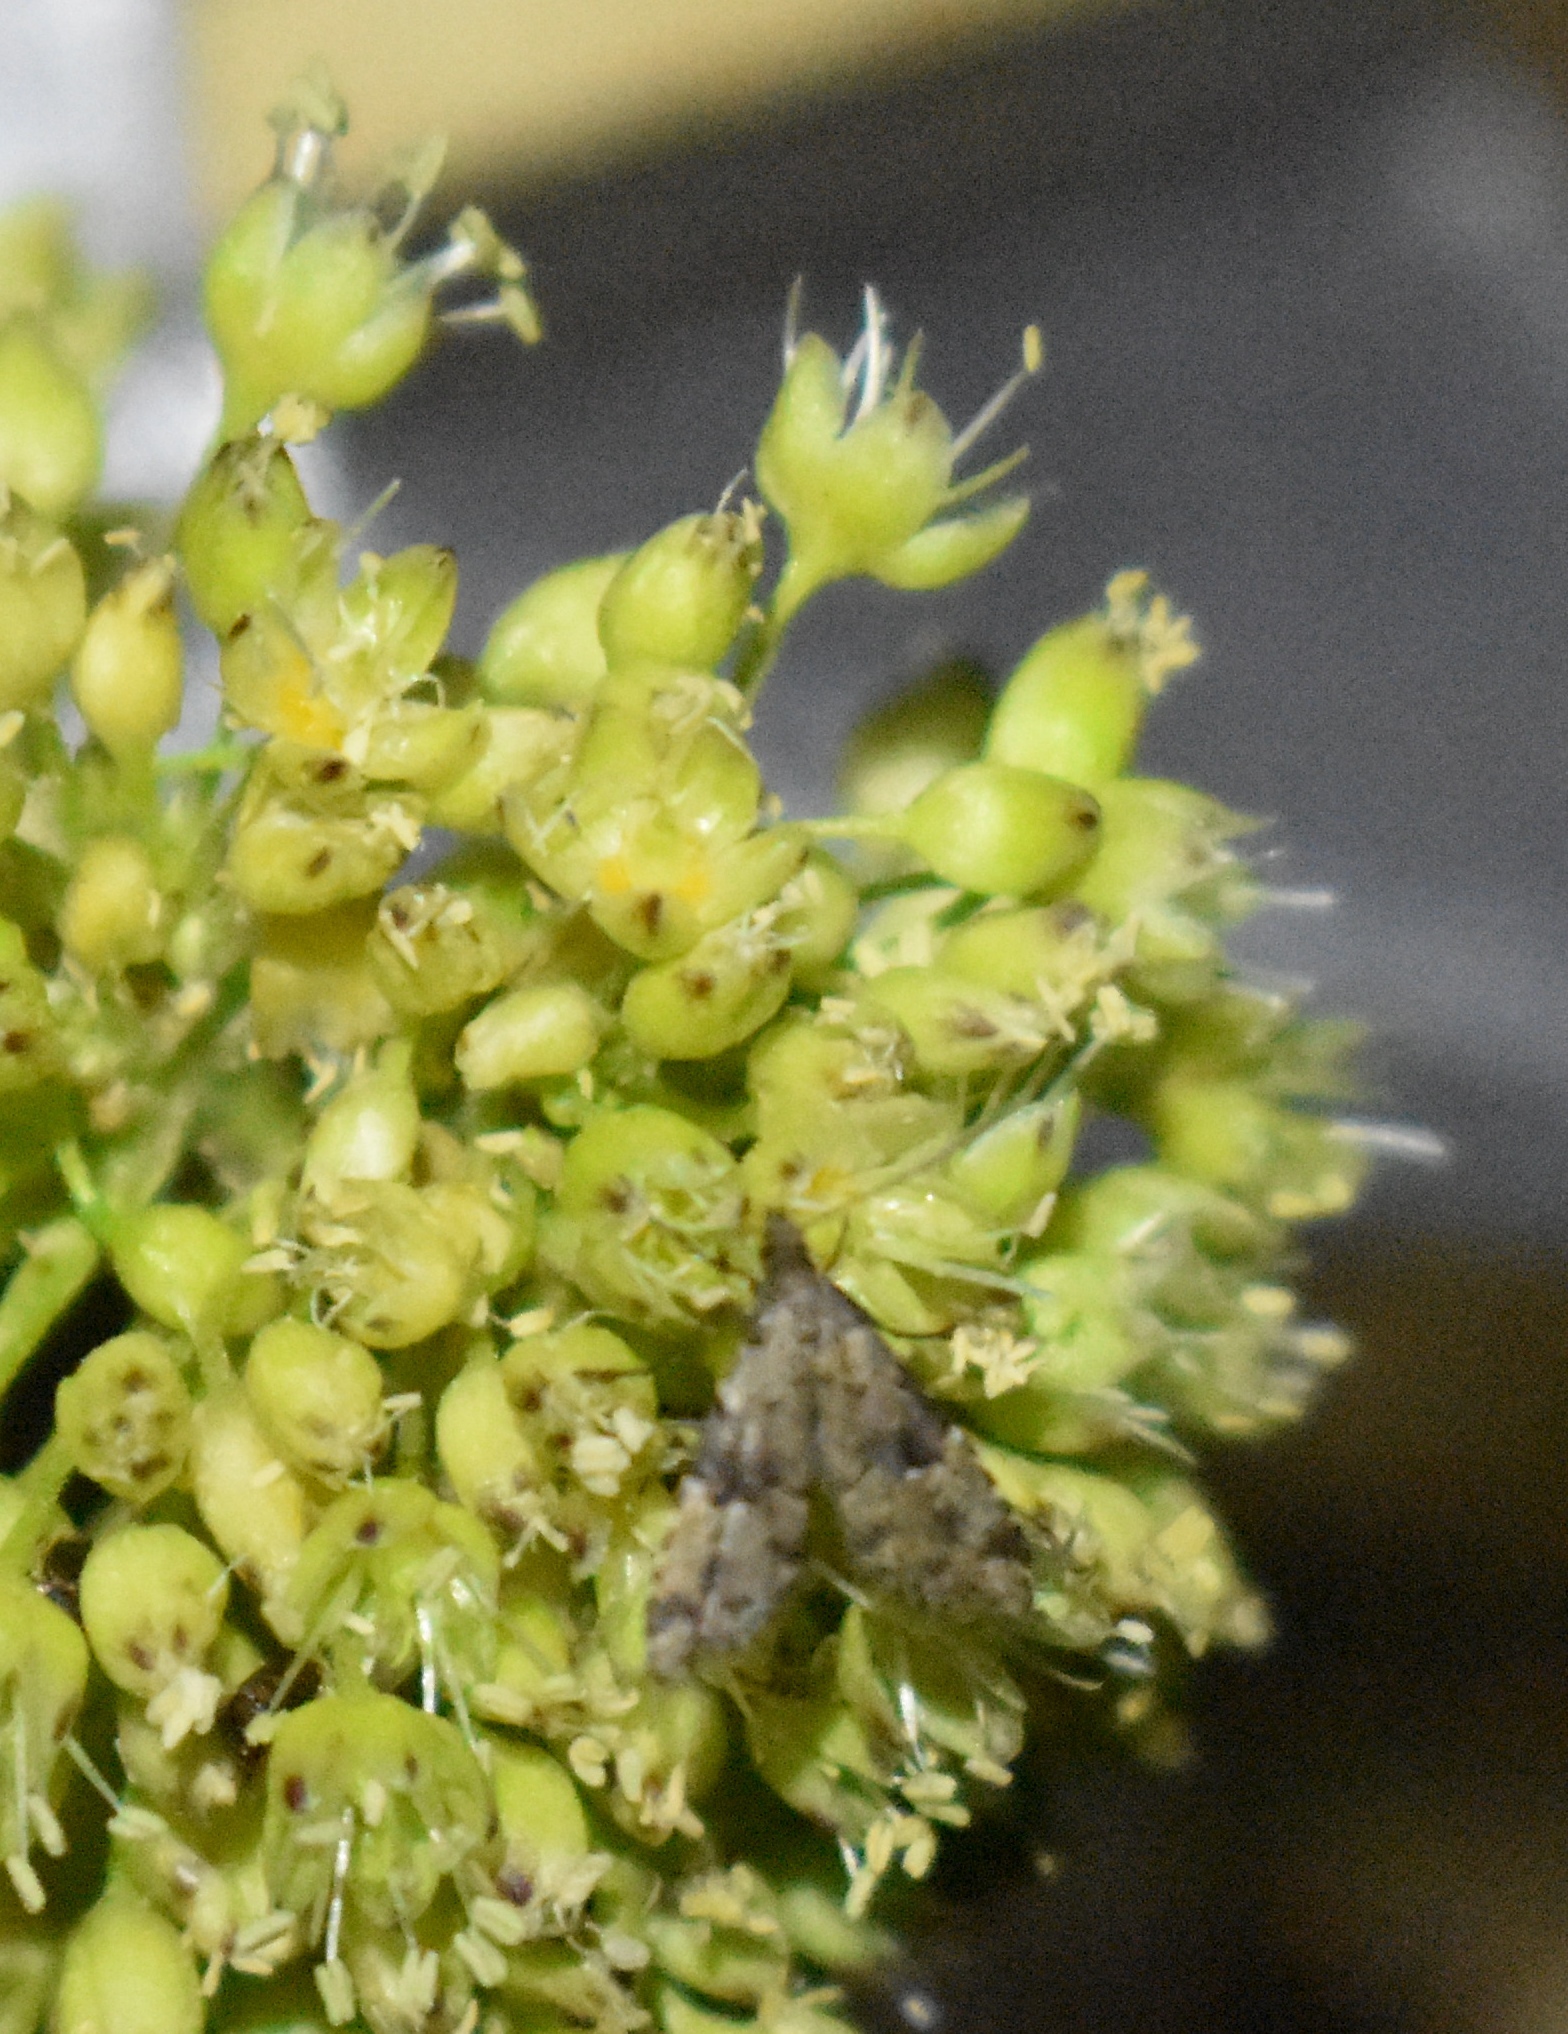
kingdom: Animalia
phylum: Arthropoda
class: Insecta
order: Lepidoptera
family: Erebidae
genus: Pseudoschrankia
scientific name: Pseudoschrankia brevipalpis
